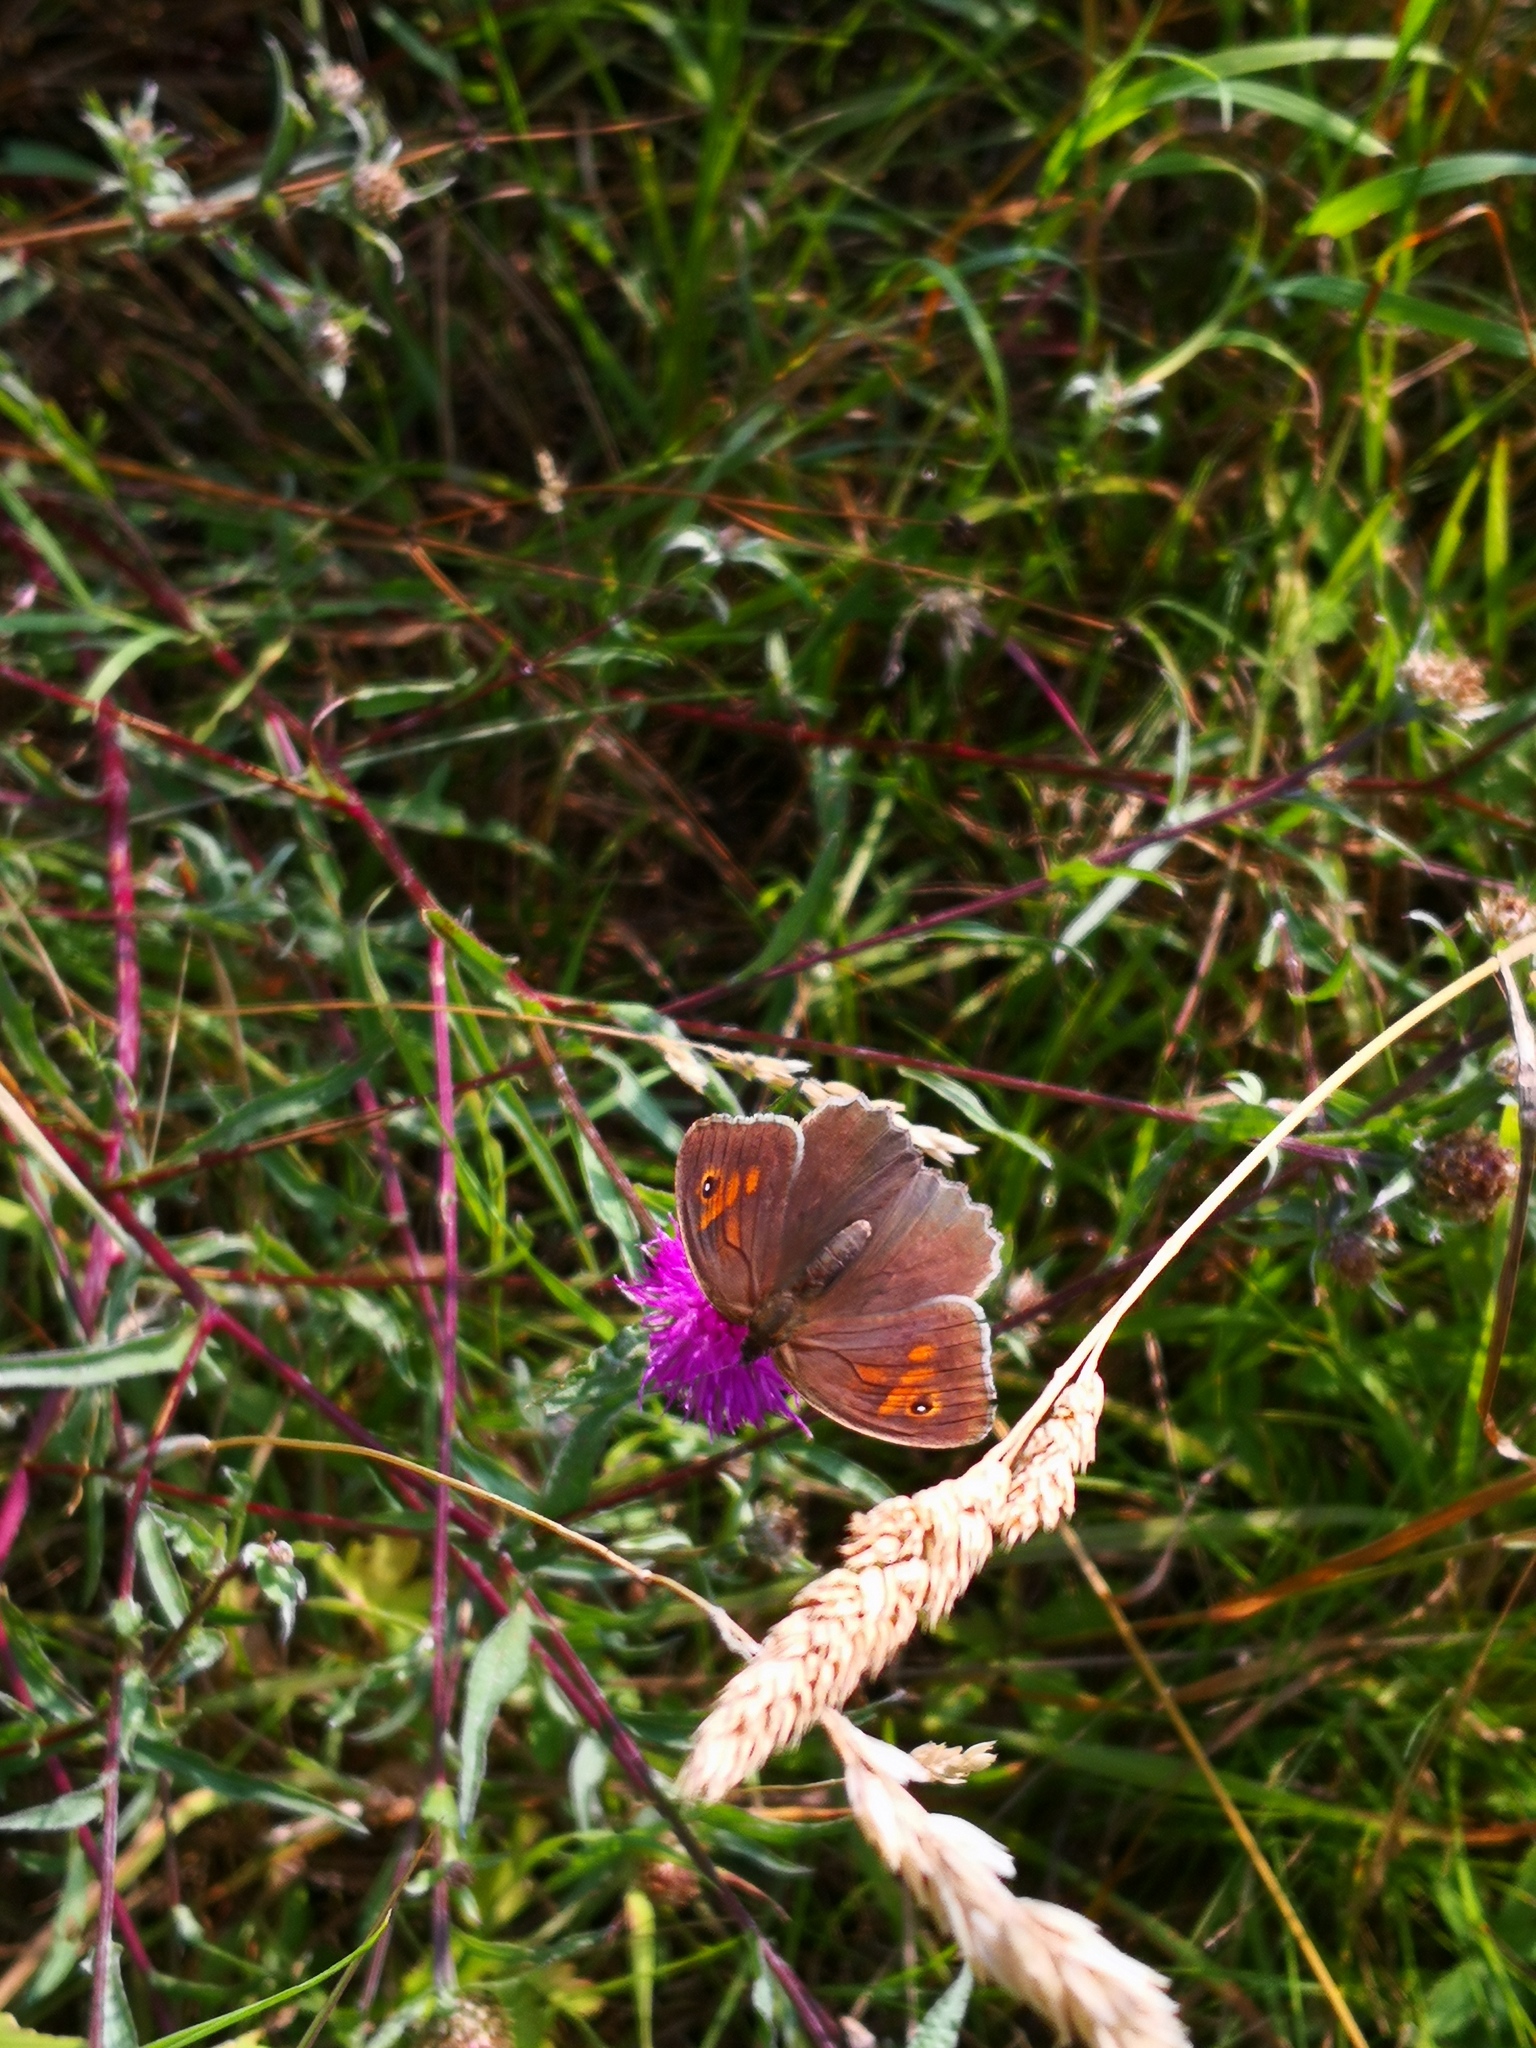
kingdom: Animalia
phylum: Arthropoda
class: Insecta
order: Lepidoptera
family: Nymphalidae
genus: Maniola
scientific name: Maniola jurtina
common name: Meadow brown
